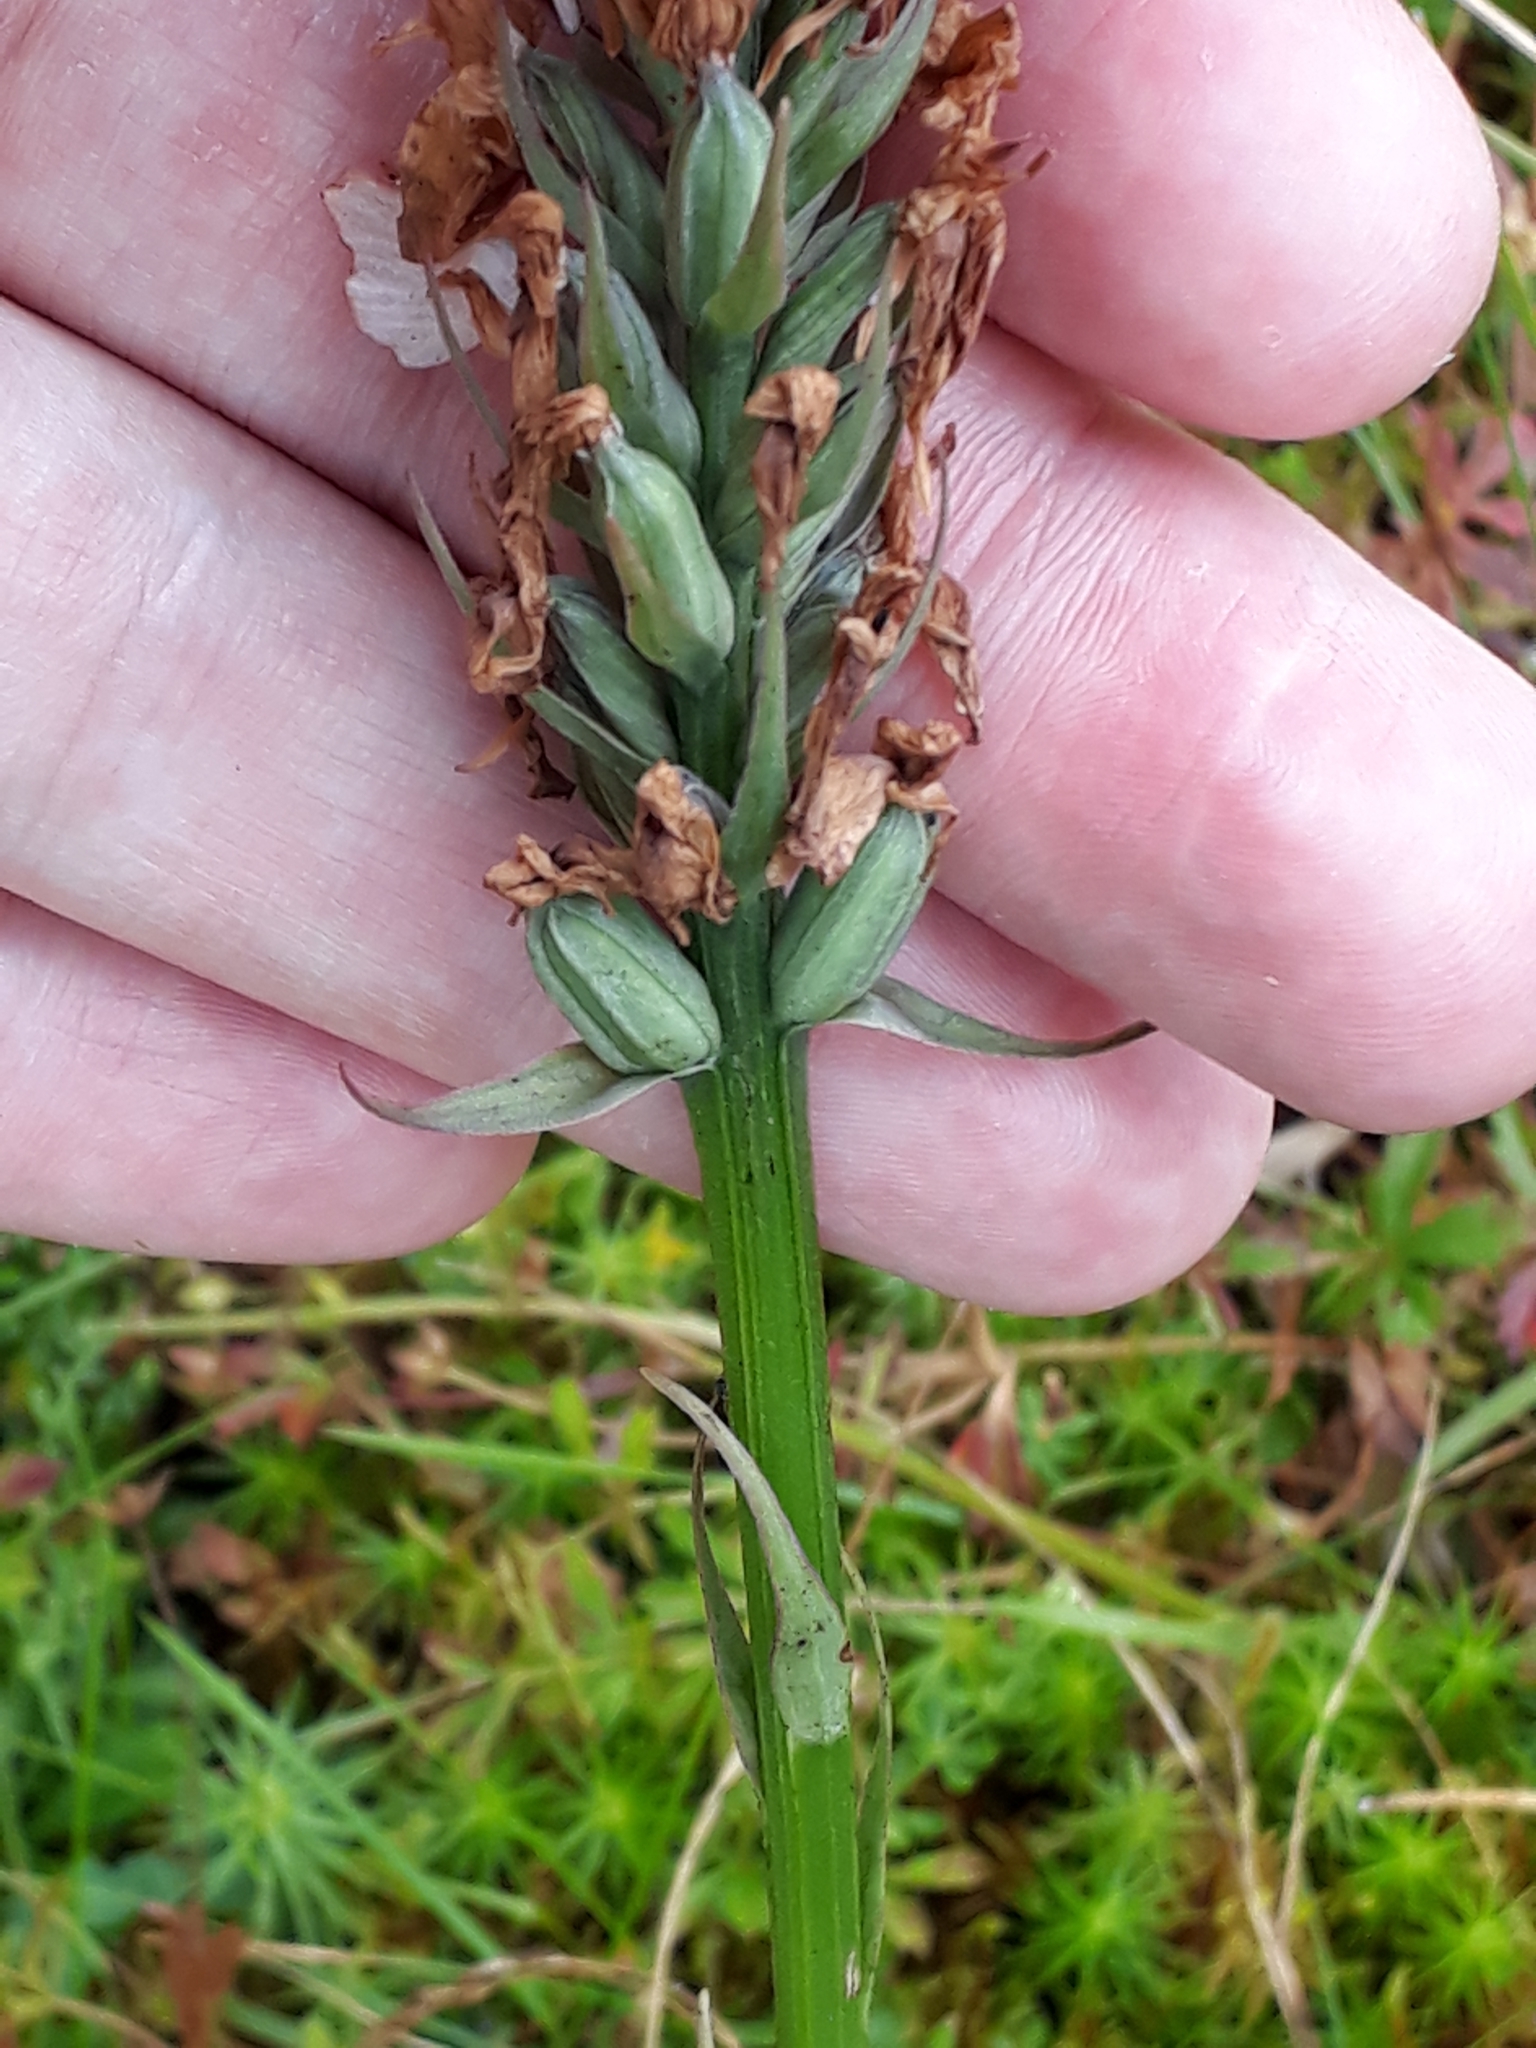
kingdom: Plantae
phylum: Tracheophyta
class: Liliopsida
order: Asparagales
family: Orchidaceae
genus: Dactylorhiza
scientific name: Dactylorhiza maculata
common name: Heath spotted-orchid
